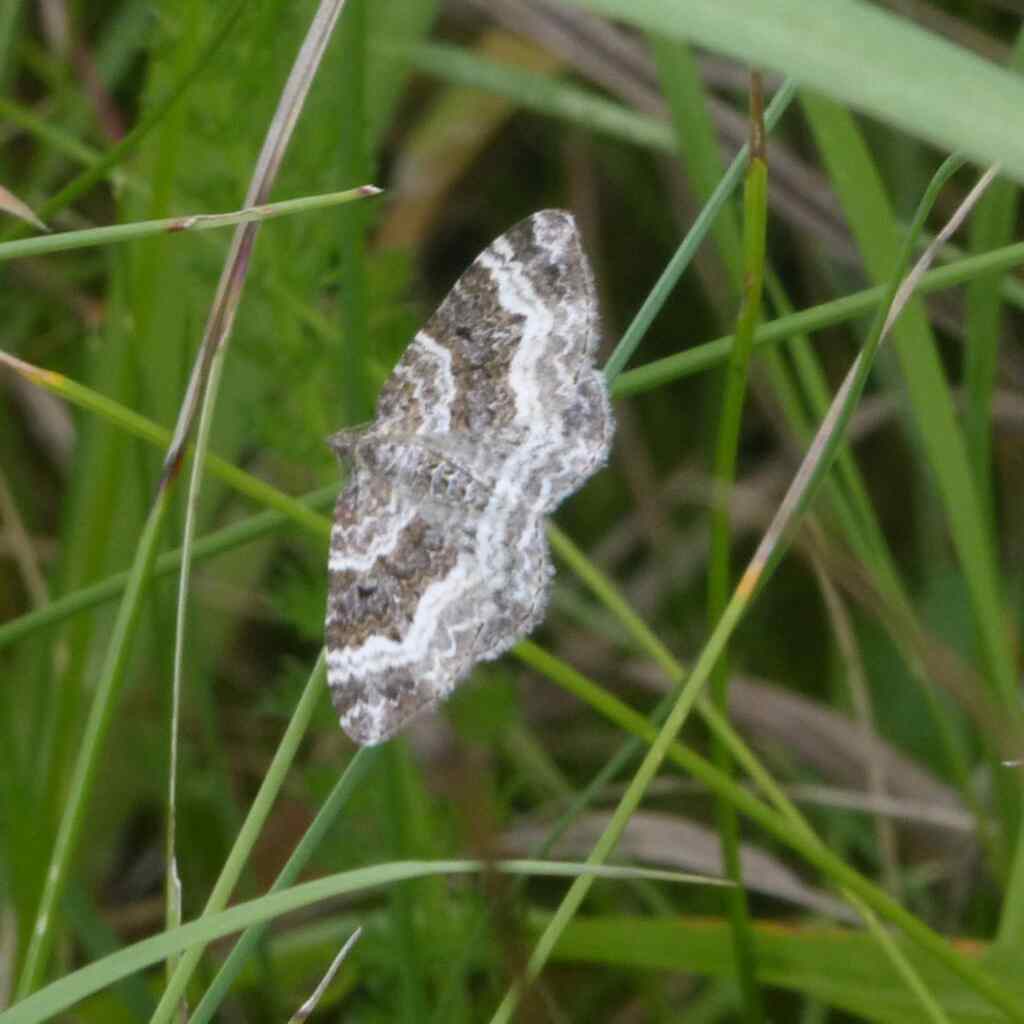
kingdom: Animalia
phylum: Arthropoda
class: Insecta
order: Lepidoptera
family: Geometridae
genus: Epirrhoe
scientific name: Epirrhoe alternata
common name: Common carpet
